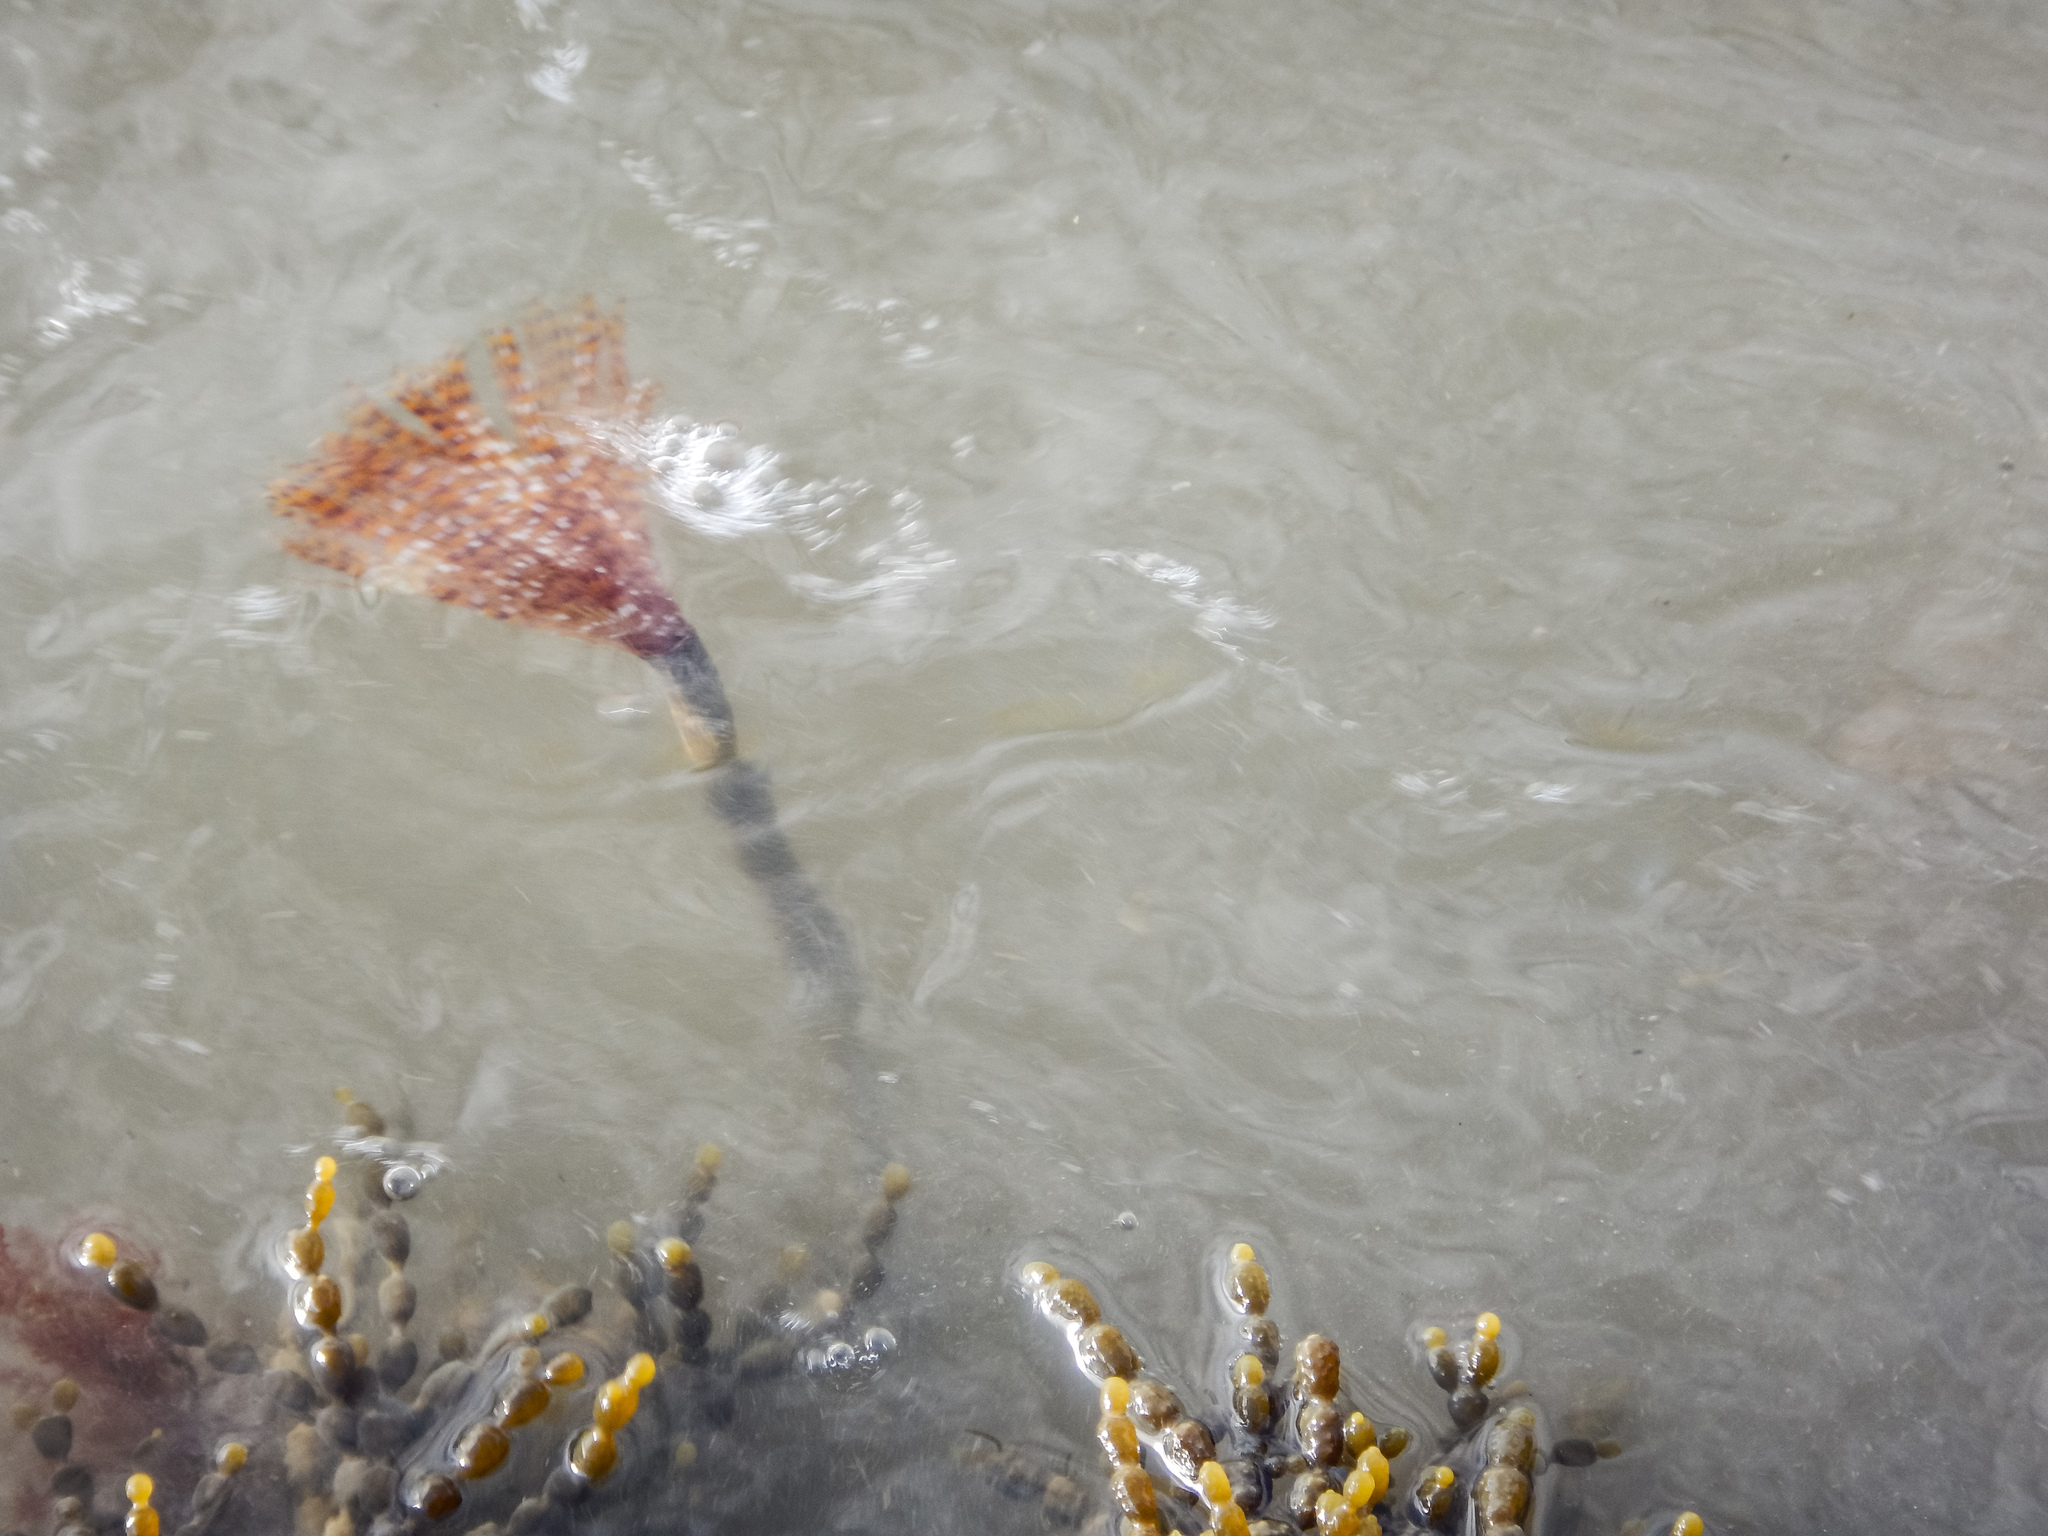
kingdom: Animalia
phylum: Annelida
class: Polychaeta
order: Sabellida
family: Sabellidae
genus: Sabella
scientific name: Sabella spallanzanii
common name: Feather duster worm
